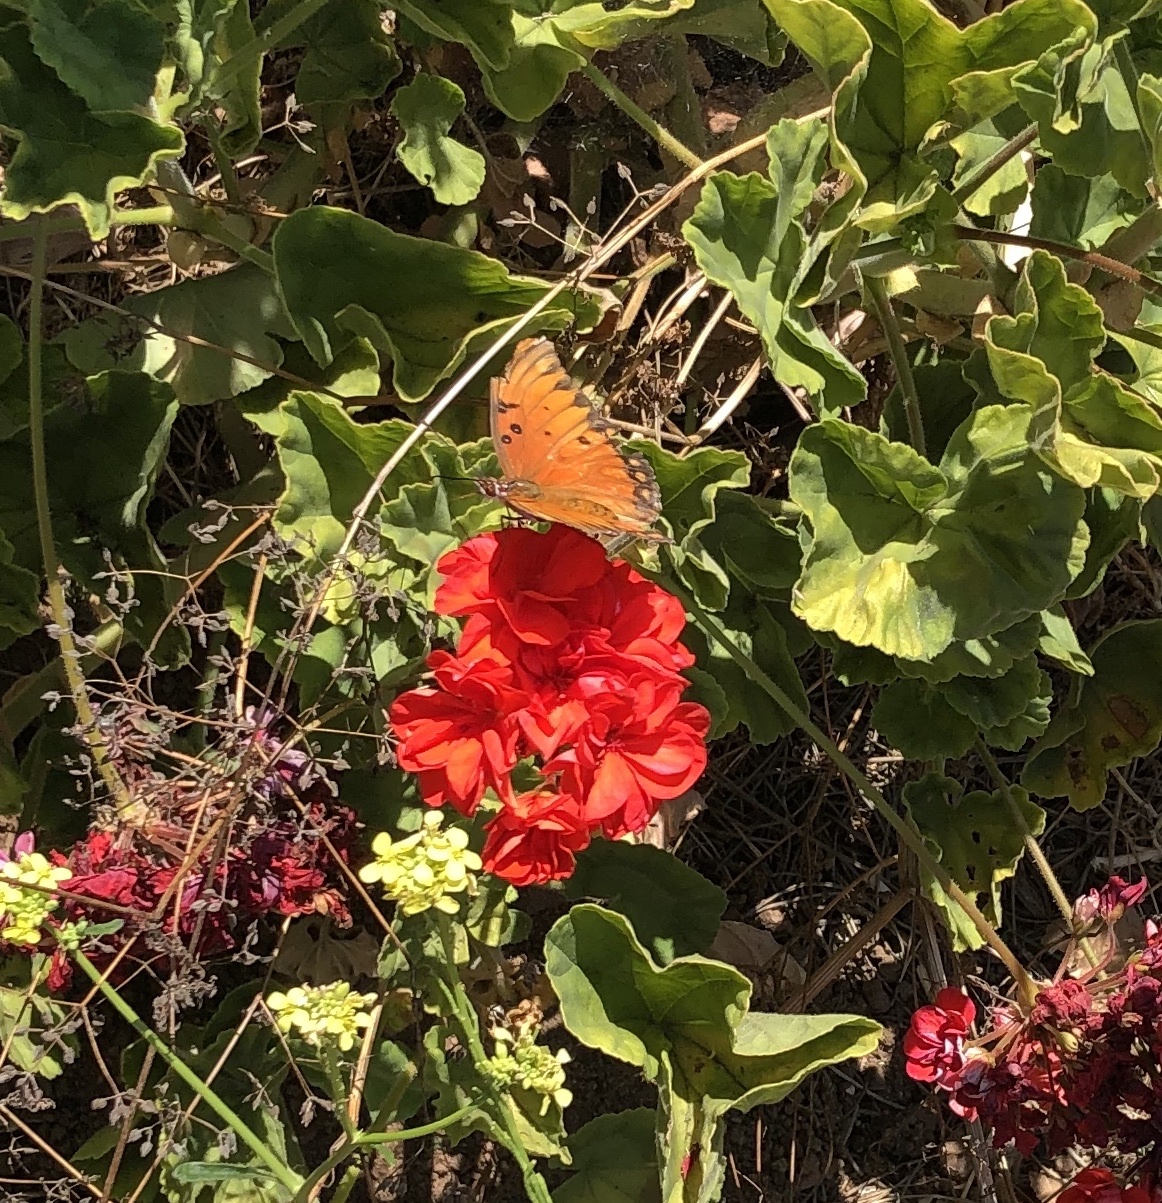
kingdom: Animalia
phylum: Arthropoda
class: Insecta
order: Lepidoptera
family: Nymphalidae
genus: Dione
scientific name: Dione vanillae
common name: Gulf fritillary
